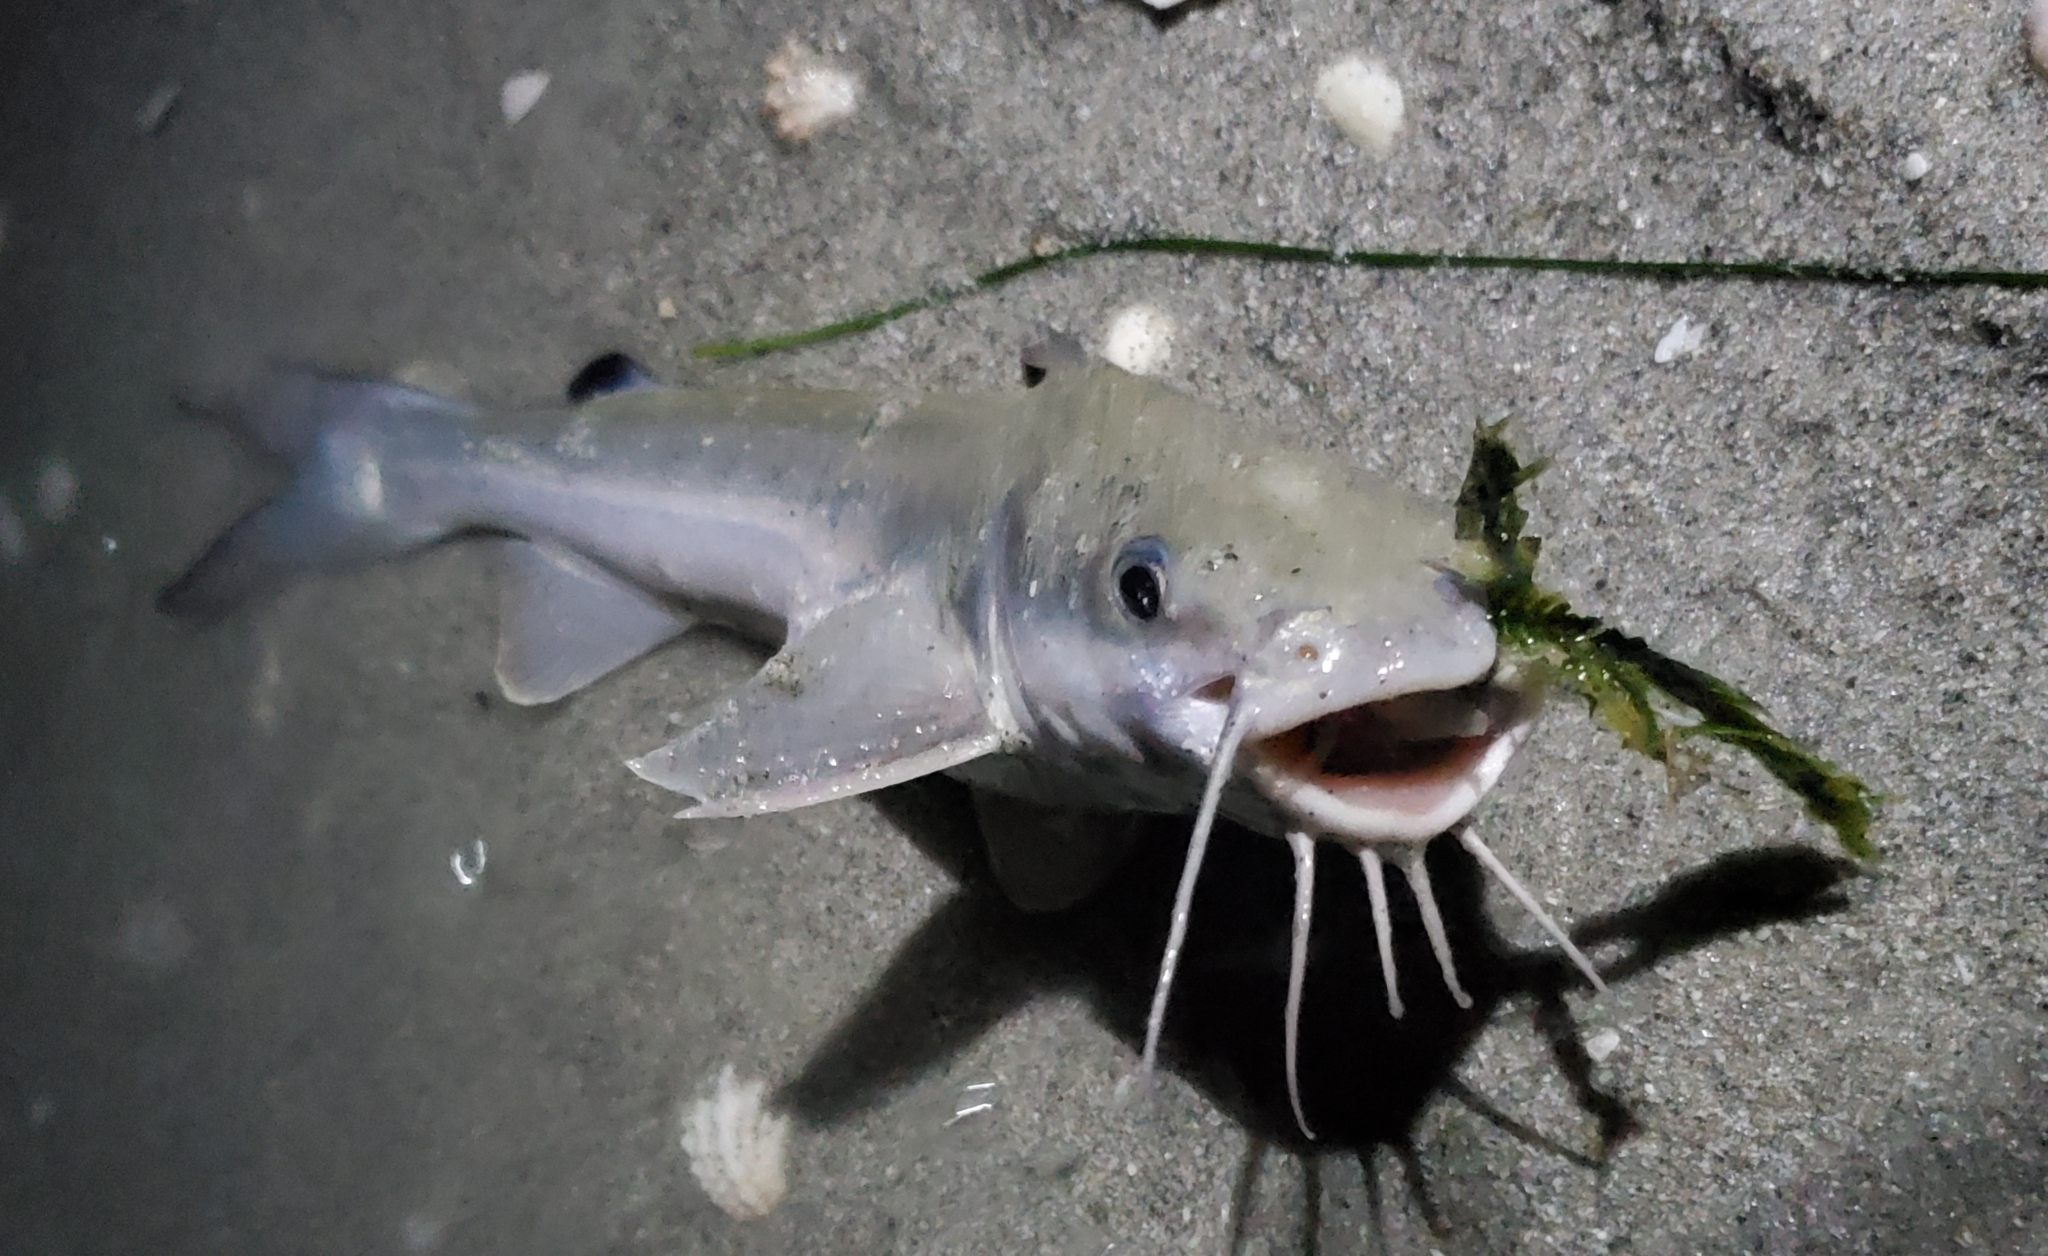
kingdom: Animalia
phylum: Chordata
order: Siluriformes
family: Ariidae
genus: Ariopsis
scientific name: Ariopsis felis
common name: Hardhead catfish
